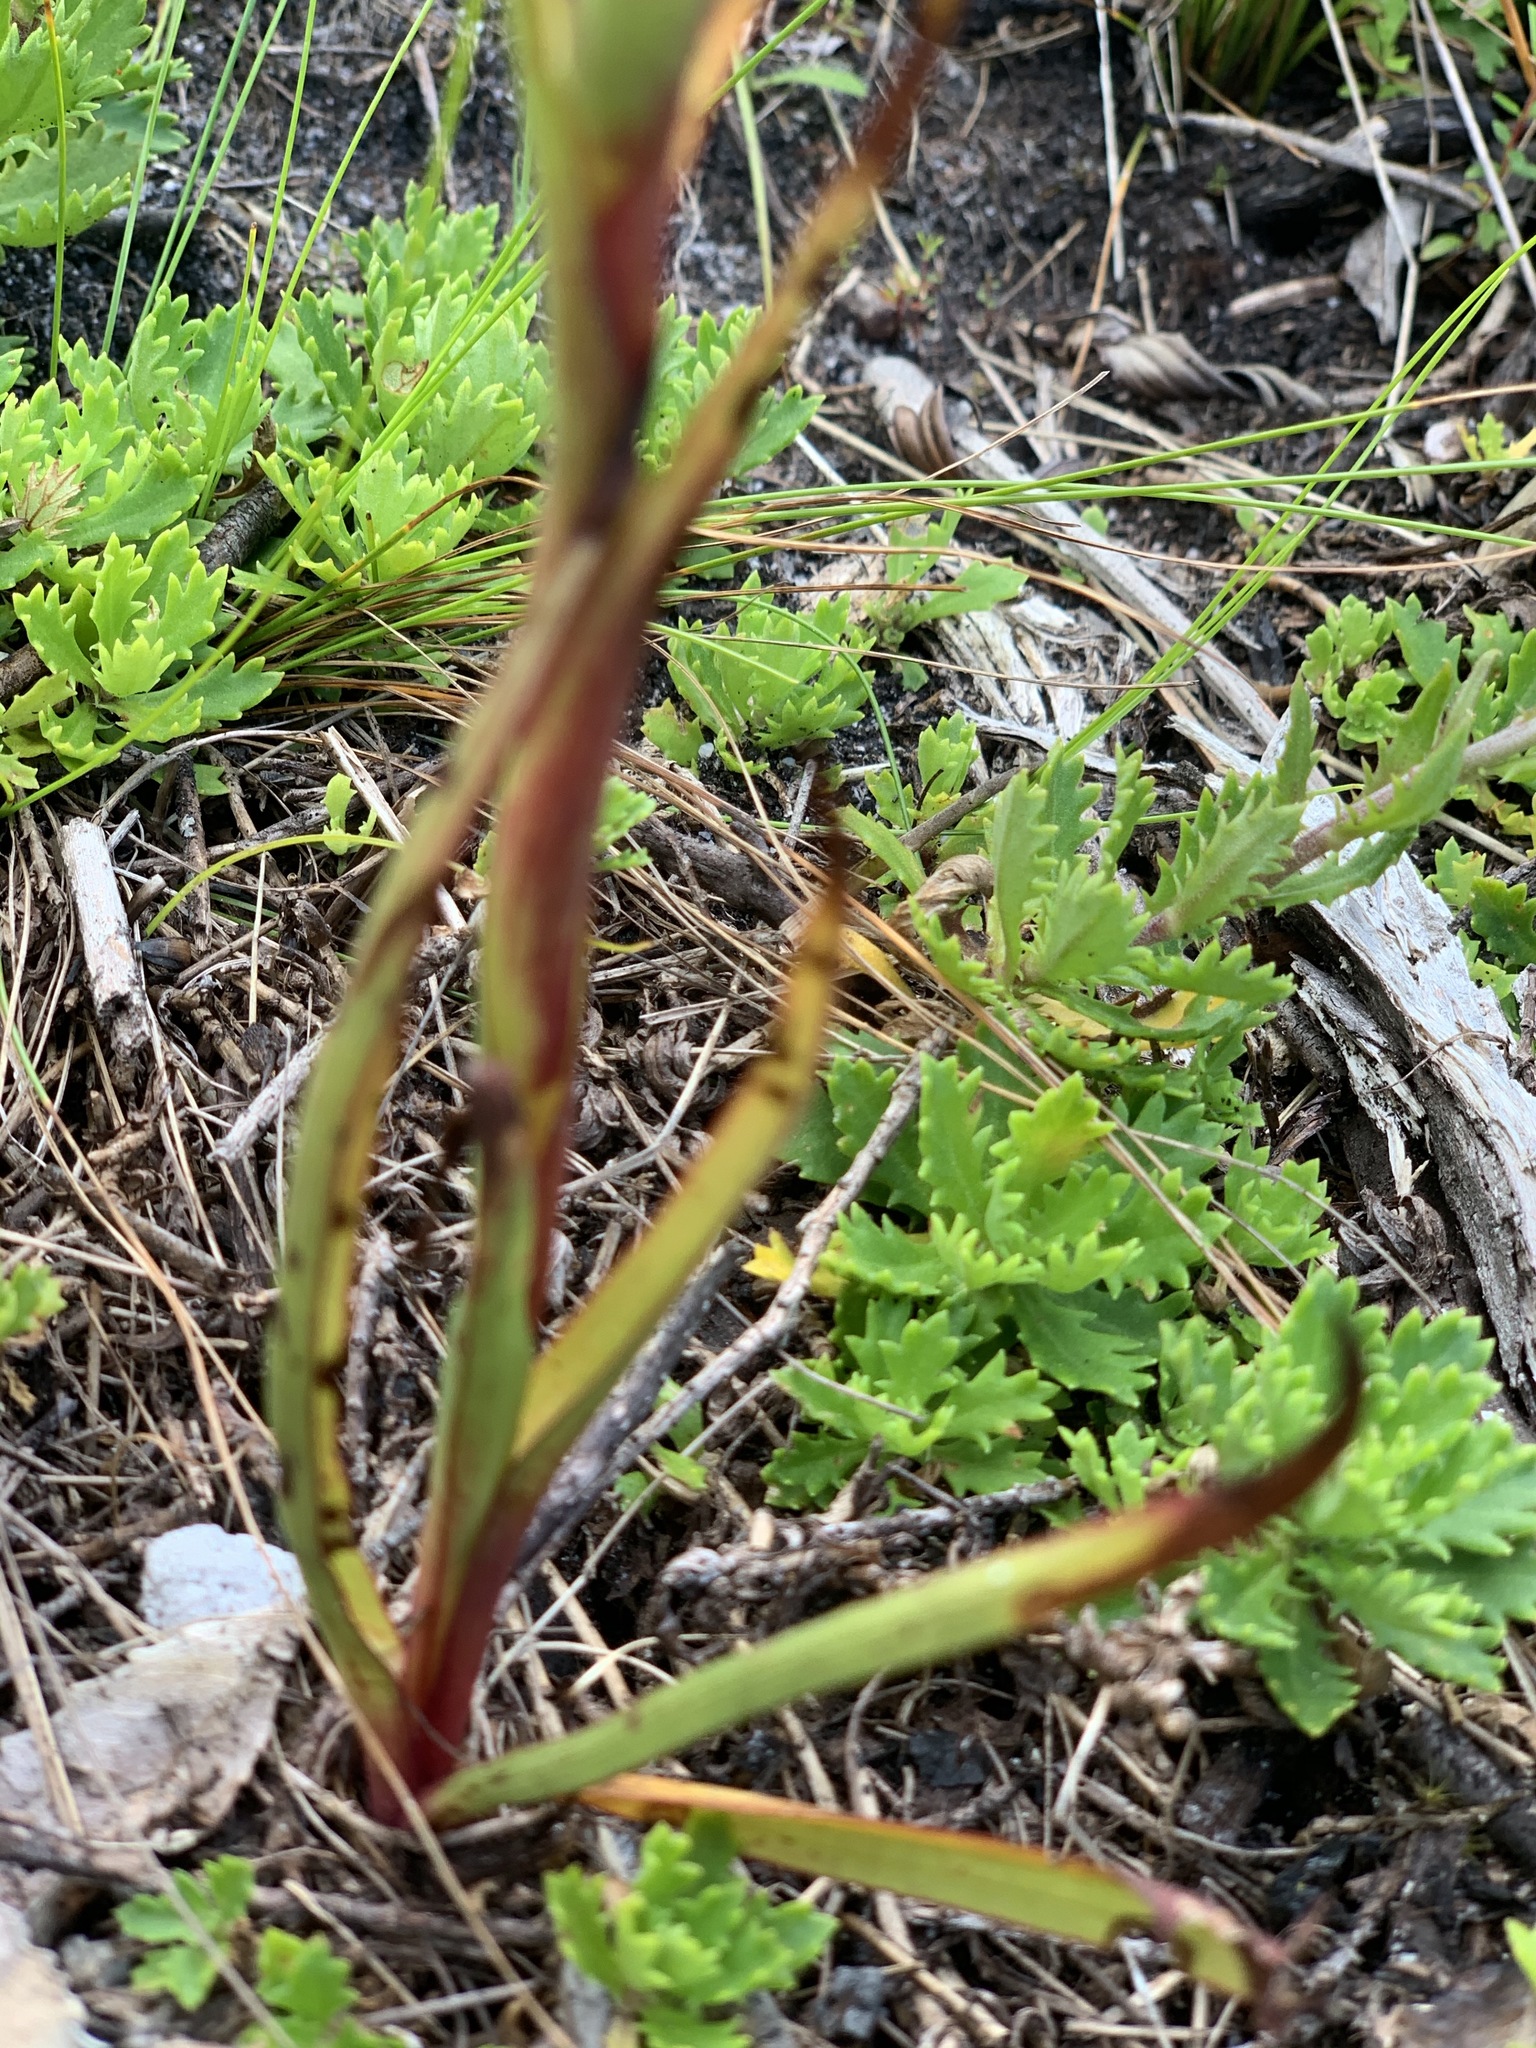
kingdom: Plantae
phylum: Tracheophyta
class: Liliopsida
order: Asparagales
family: Orchidaceae
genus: Disa
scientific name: Disa bracteata
